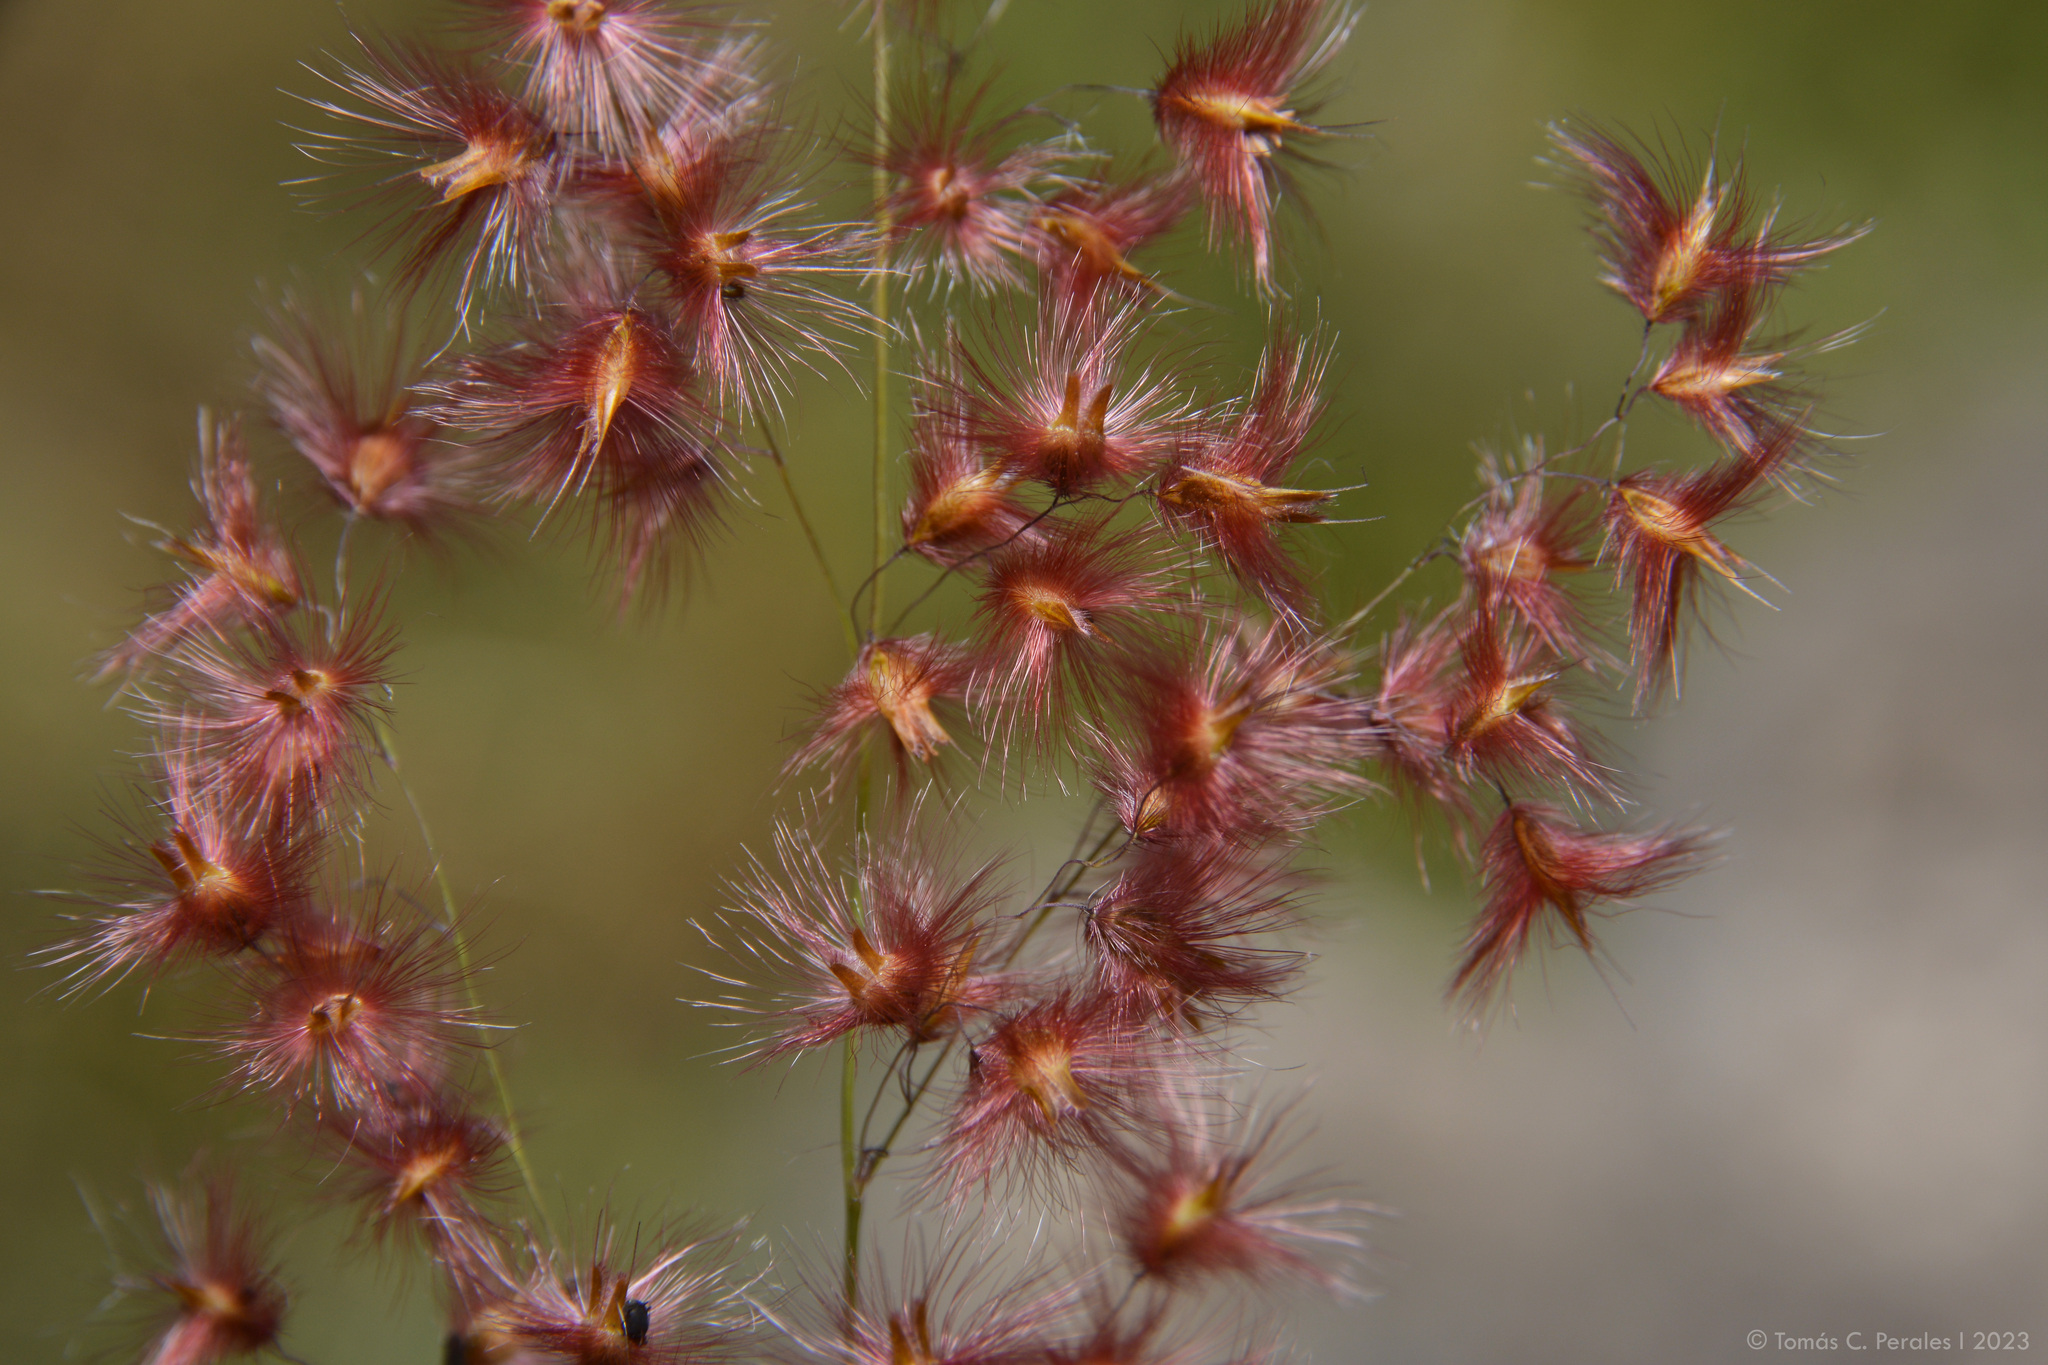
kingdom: Plantae
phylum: Tracheophyta
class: Liliopsida
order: Poales
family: Poaceae
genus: Melinis
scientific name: Melinis repens
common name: Rose natal grass
